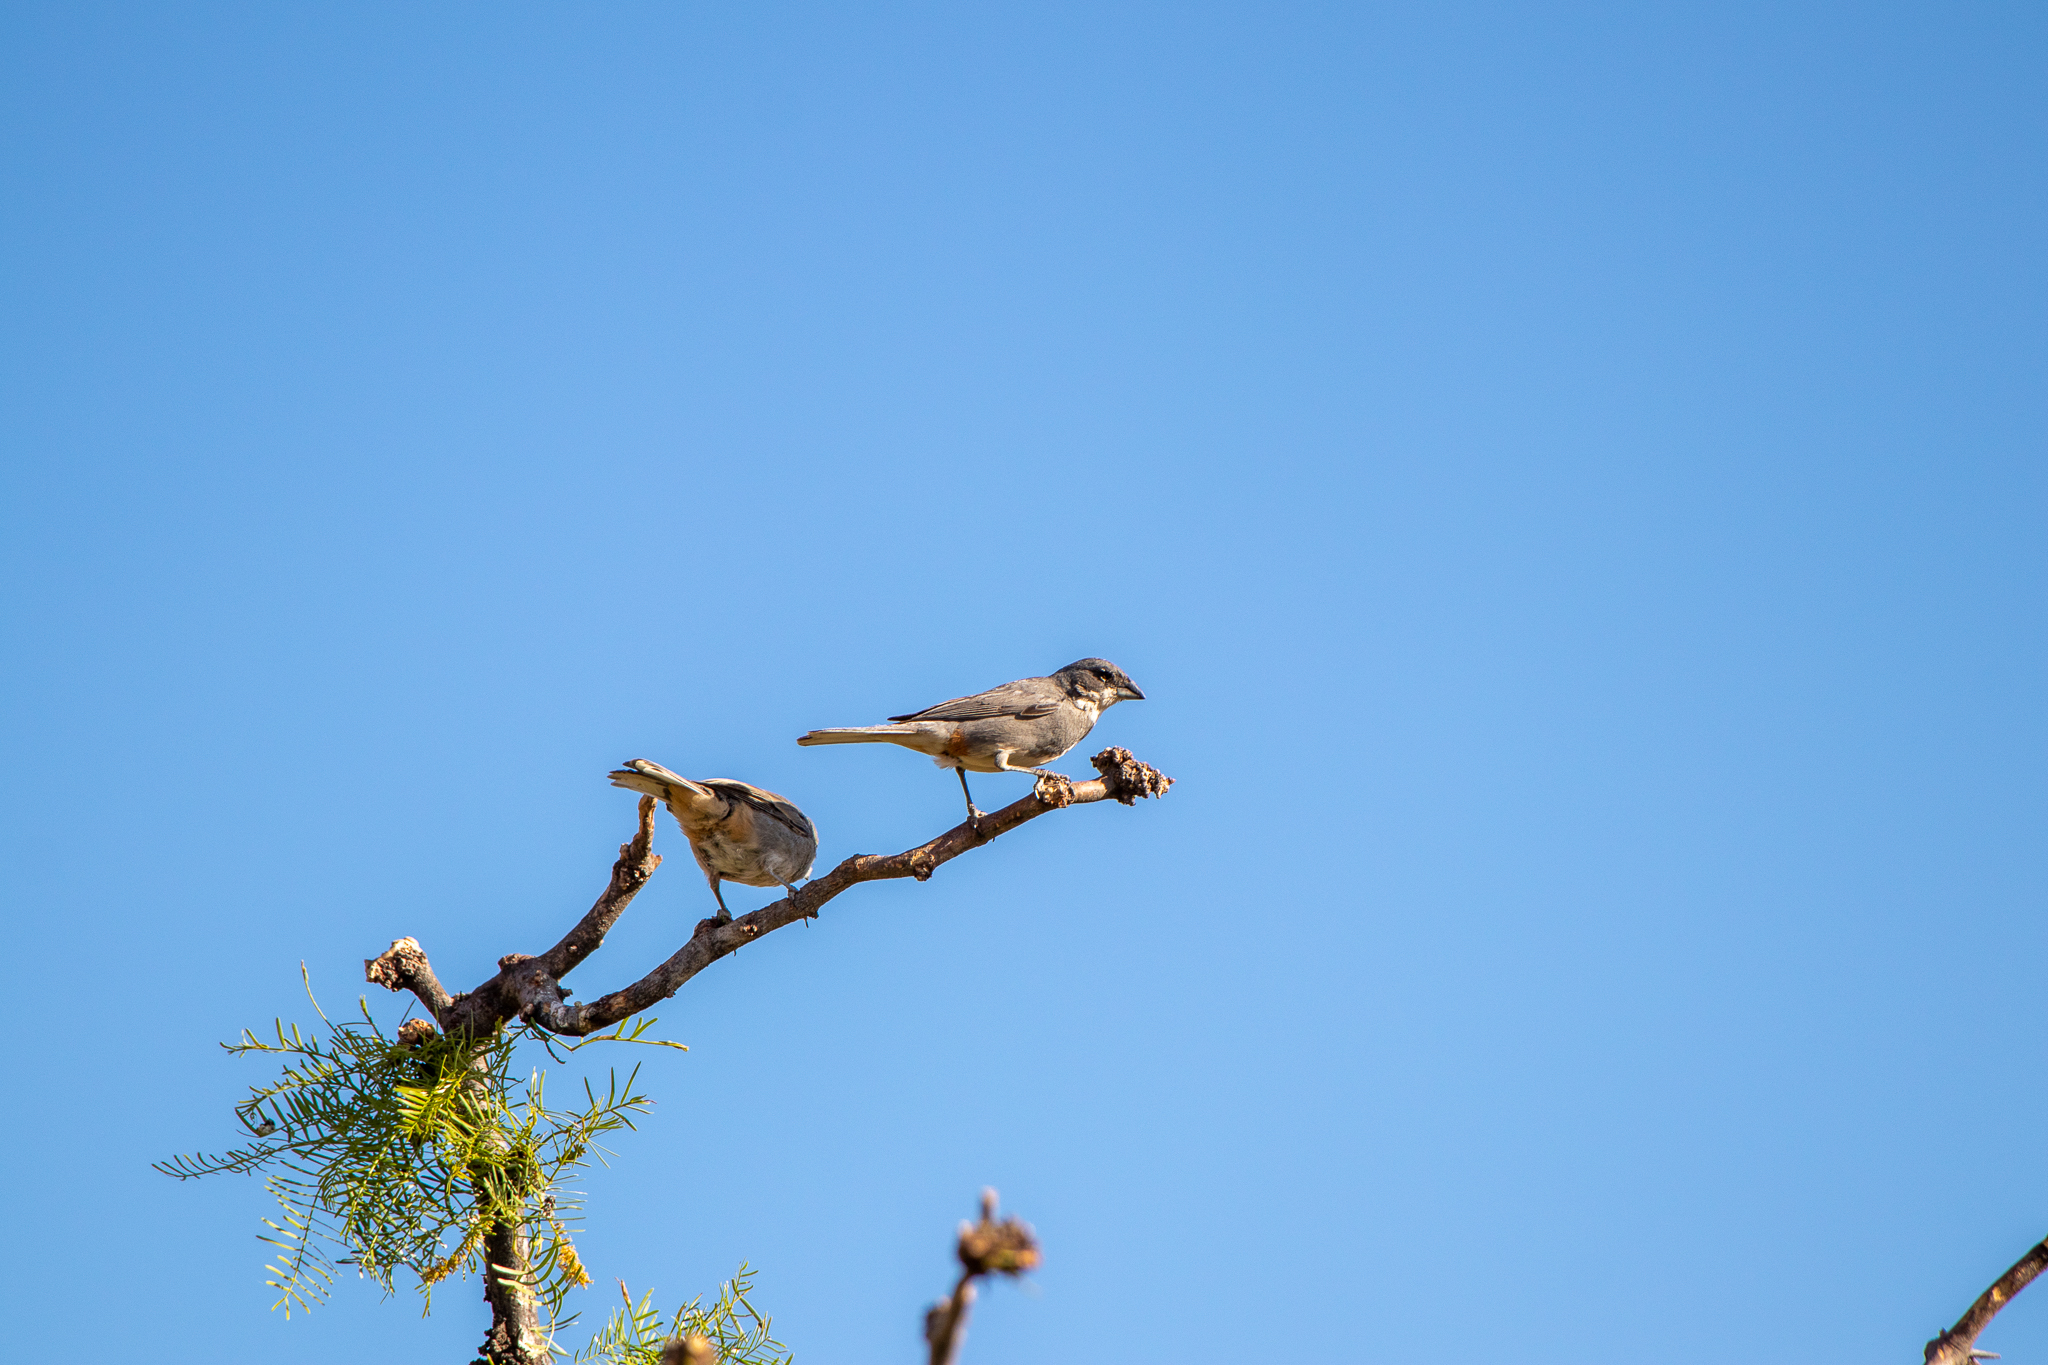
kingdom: Animalia
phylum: Chordata
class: Aves
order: Passeriformes
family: Thraupidae
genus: Diuca
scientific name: Diuca diuca
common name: Common diuca finch
